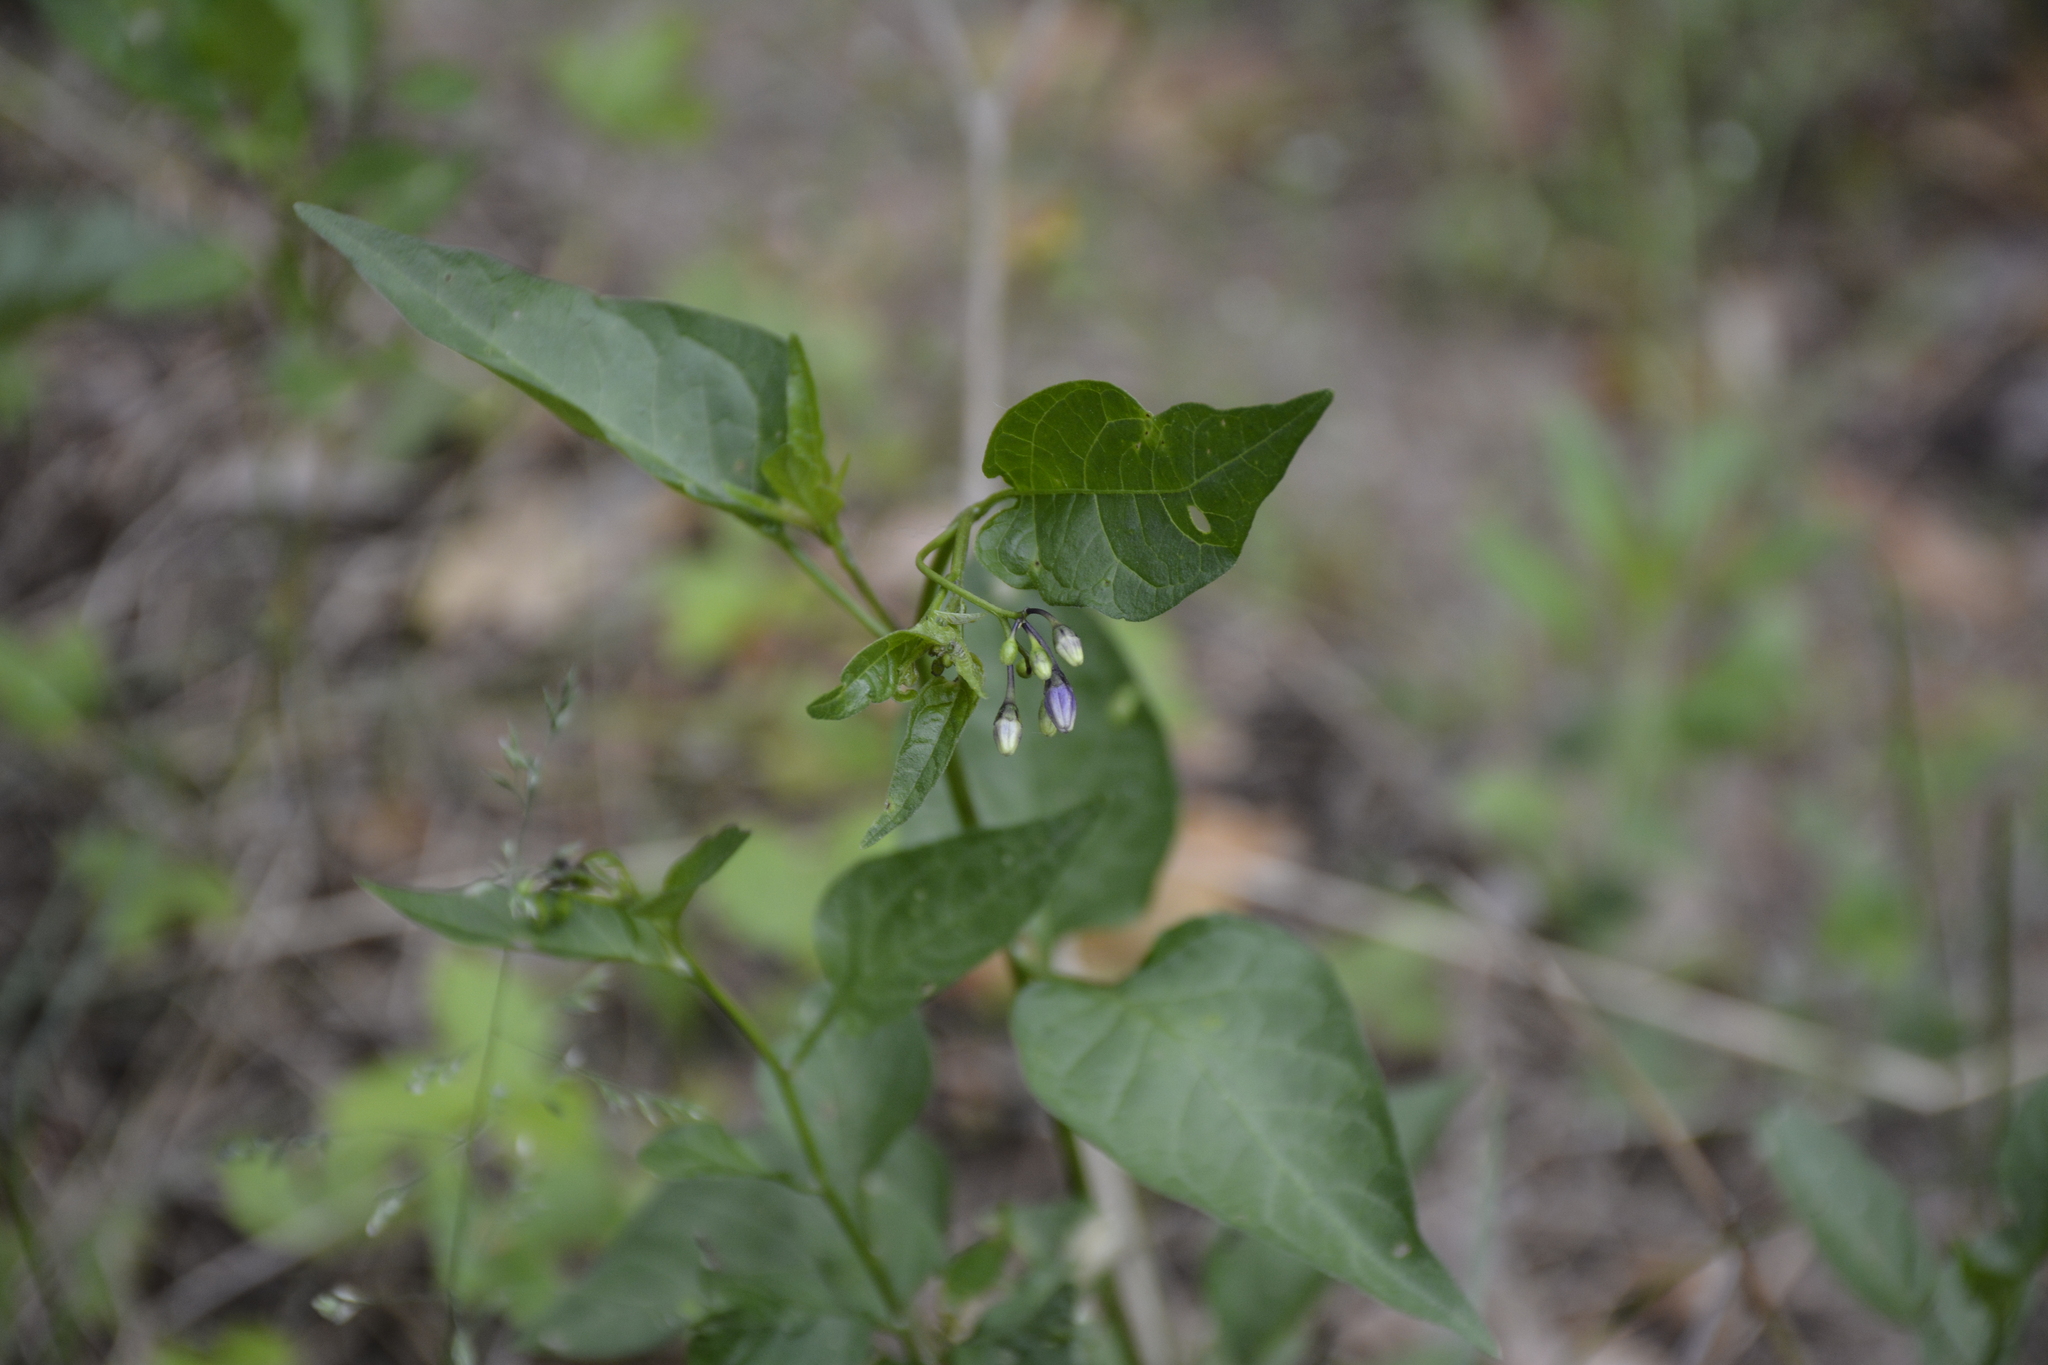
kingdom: Plantae
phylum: Tracheophyta
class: Magnoliopsida
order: Solanales
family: Solanaceae
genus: Solanum
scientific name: Solanum dulcamara
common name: Climbing nightshade
